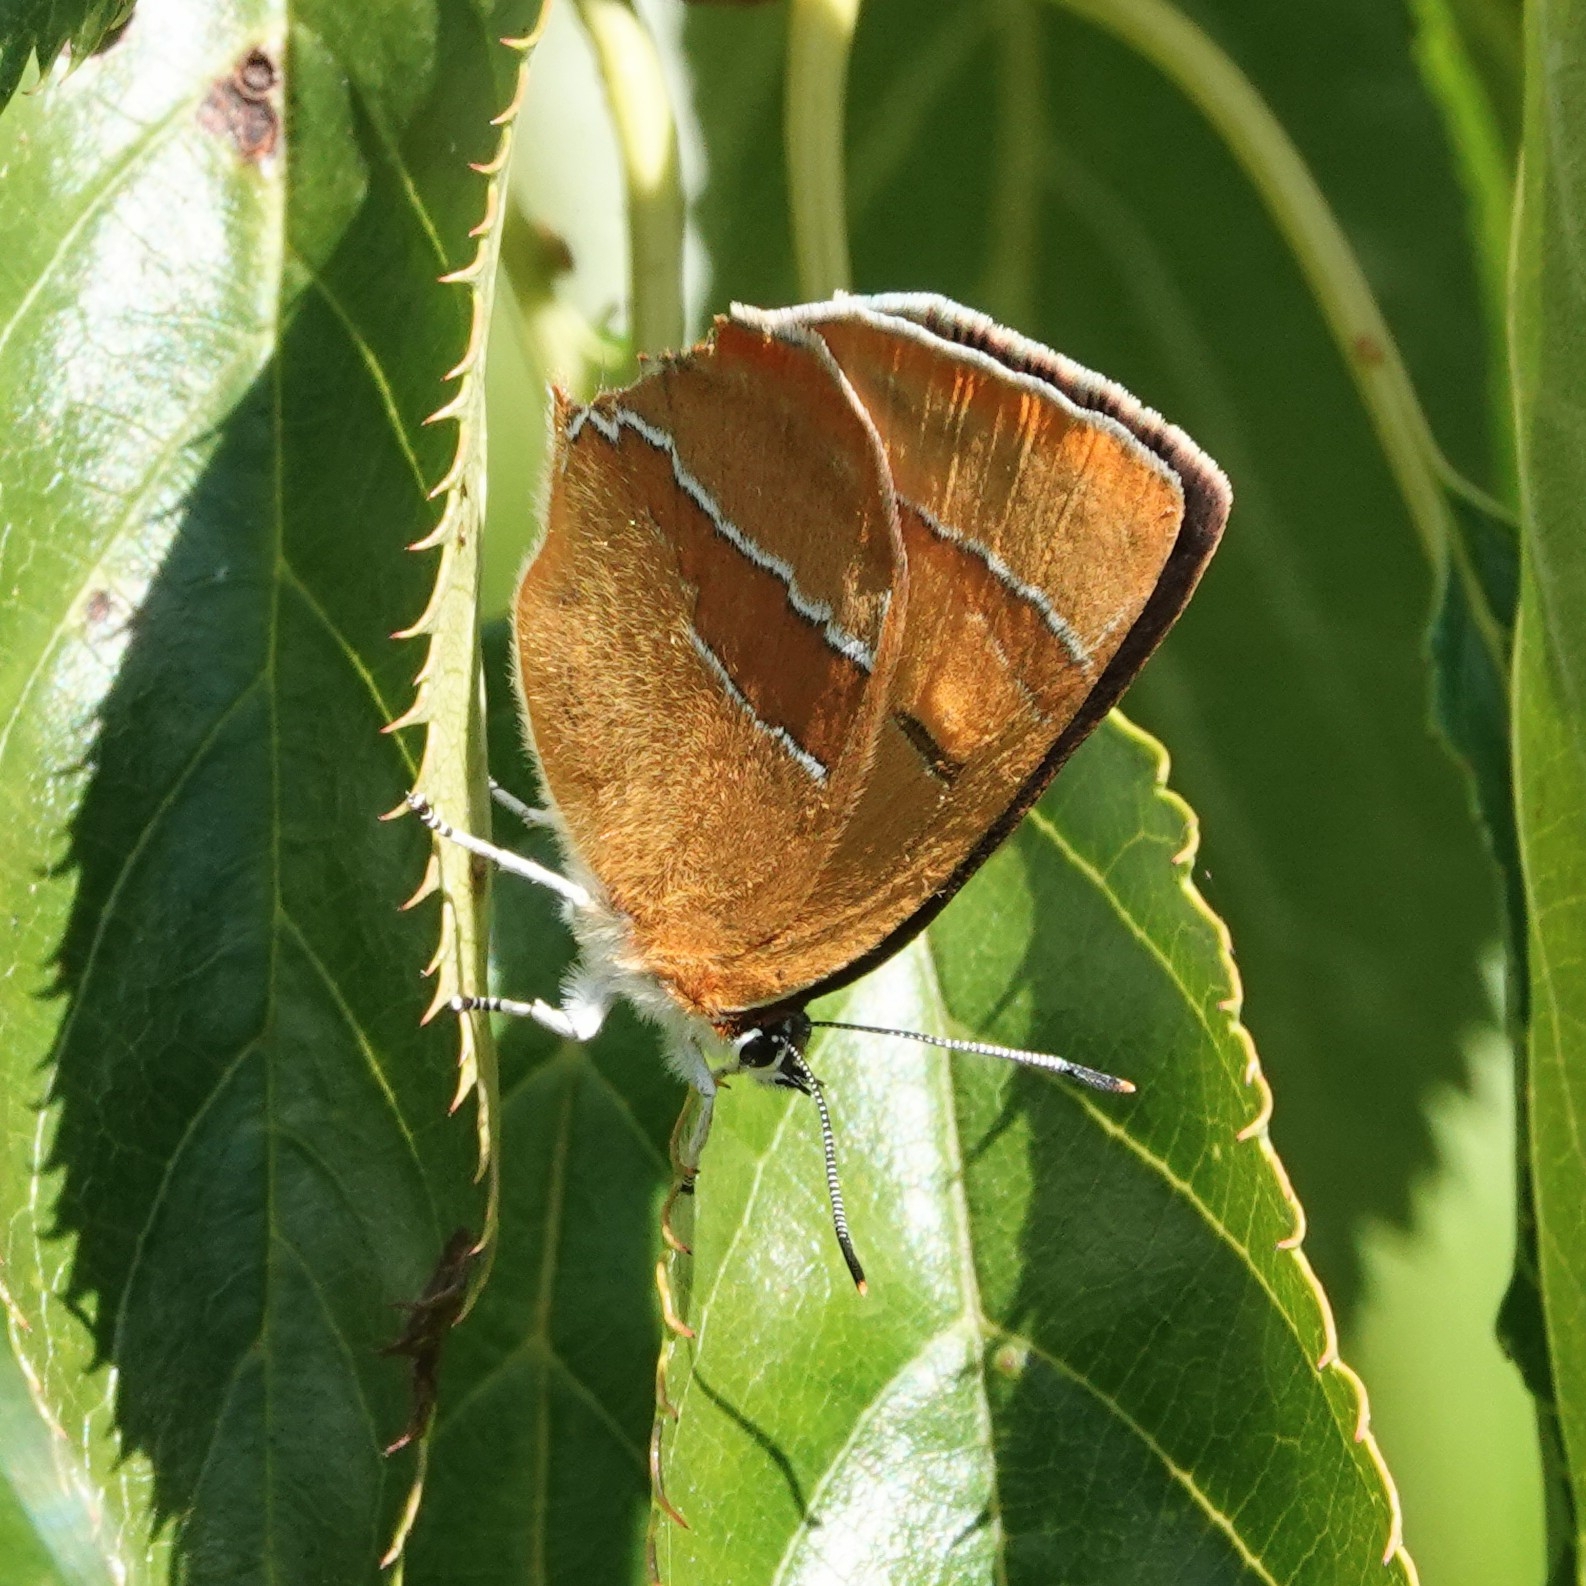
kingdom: Animalia
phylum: Arthropoda
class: Insecta
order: Lepidoptera
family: Lycaenidae
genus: Thecla
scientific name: Thecla betulae
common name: Brown hairstreak
